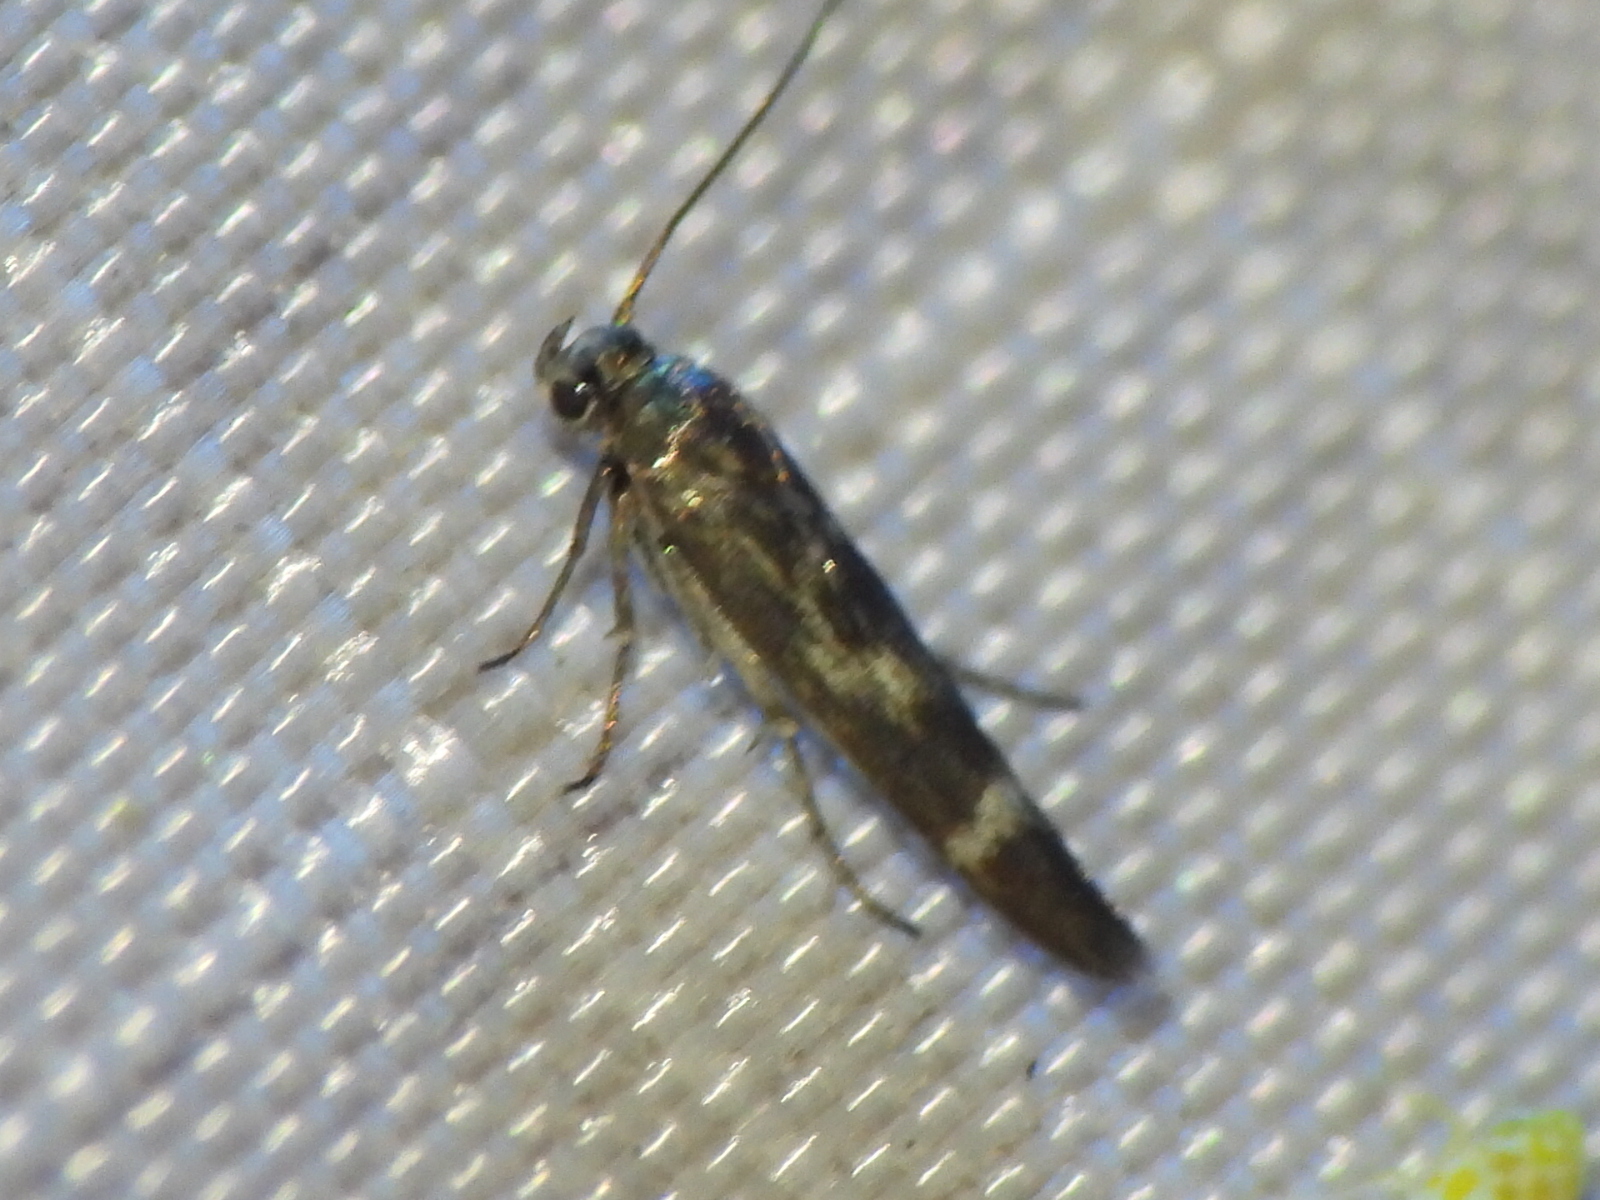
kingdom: Animalia
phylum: Arthropoda
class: Insecta
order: Lepidoptera
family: Scythrididae
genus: Scythris
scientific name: Scythris trivinctella
